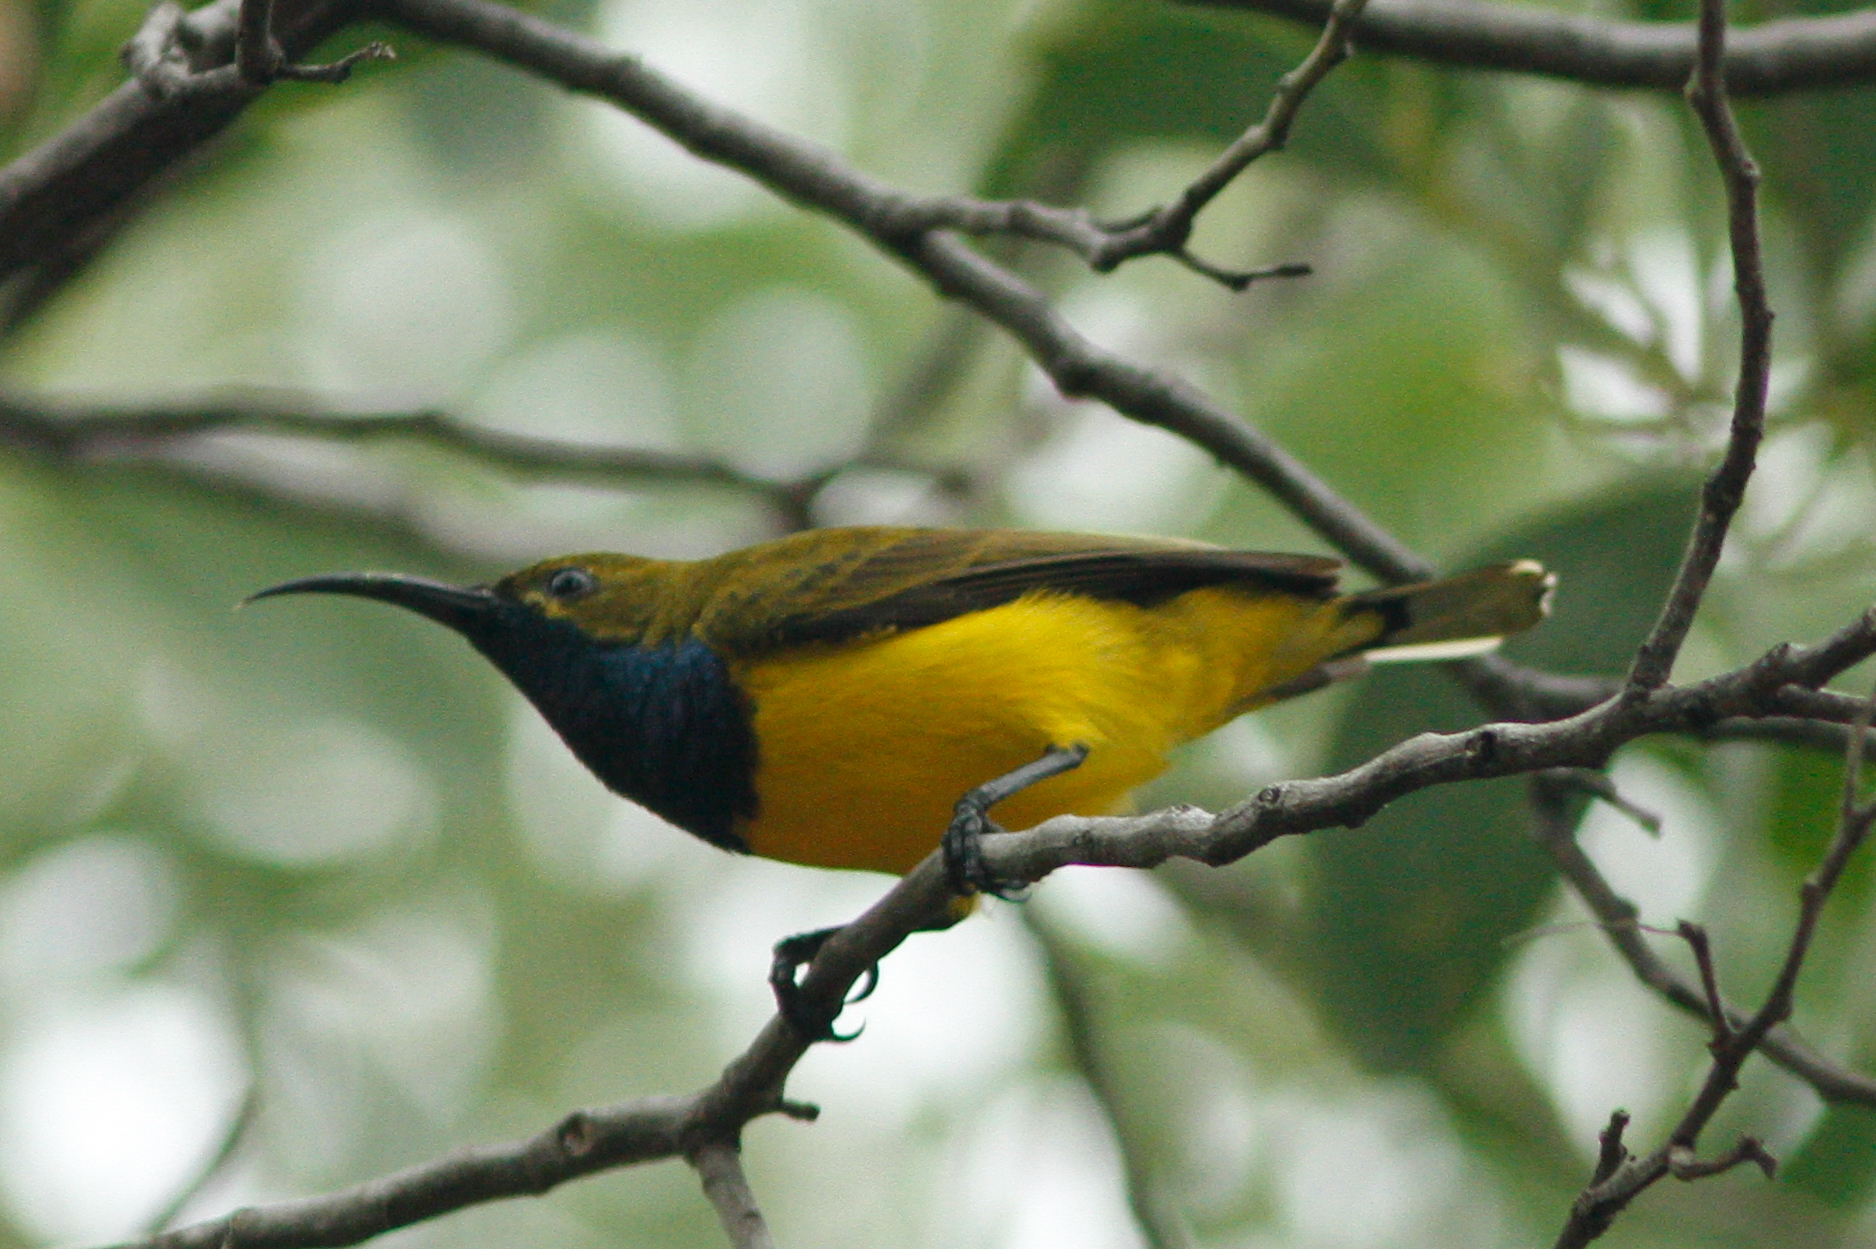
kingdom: Animalia
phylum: Chordata
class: Aves
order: Passeriformes
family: Nectariniidae
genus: Cinnyris
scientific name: Cinnyris
